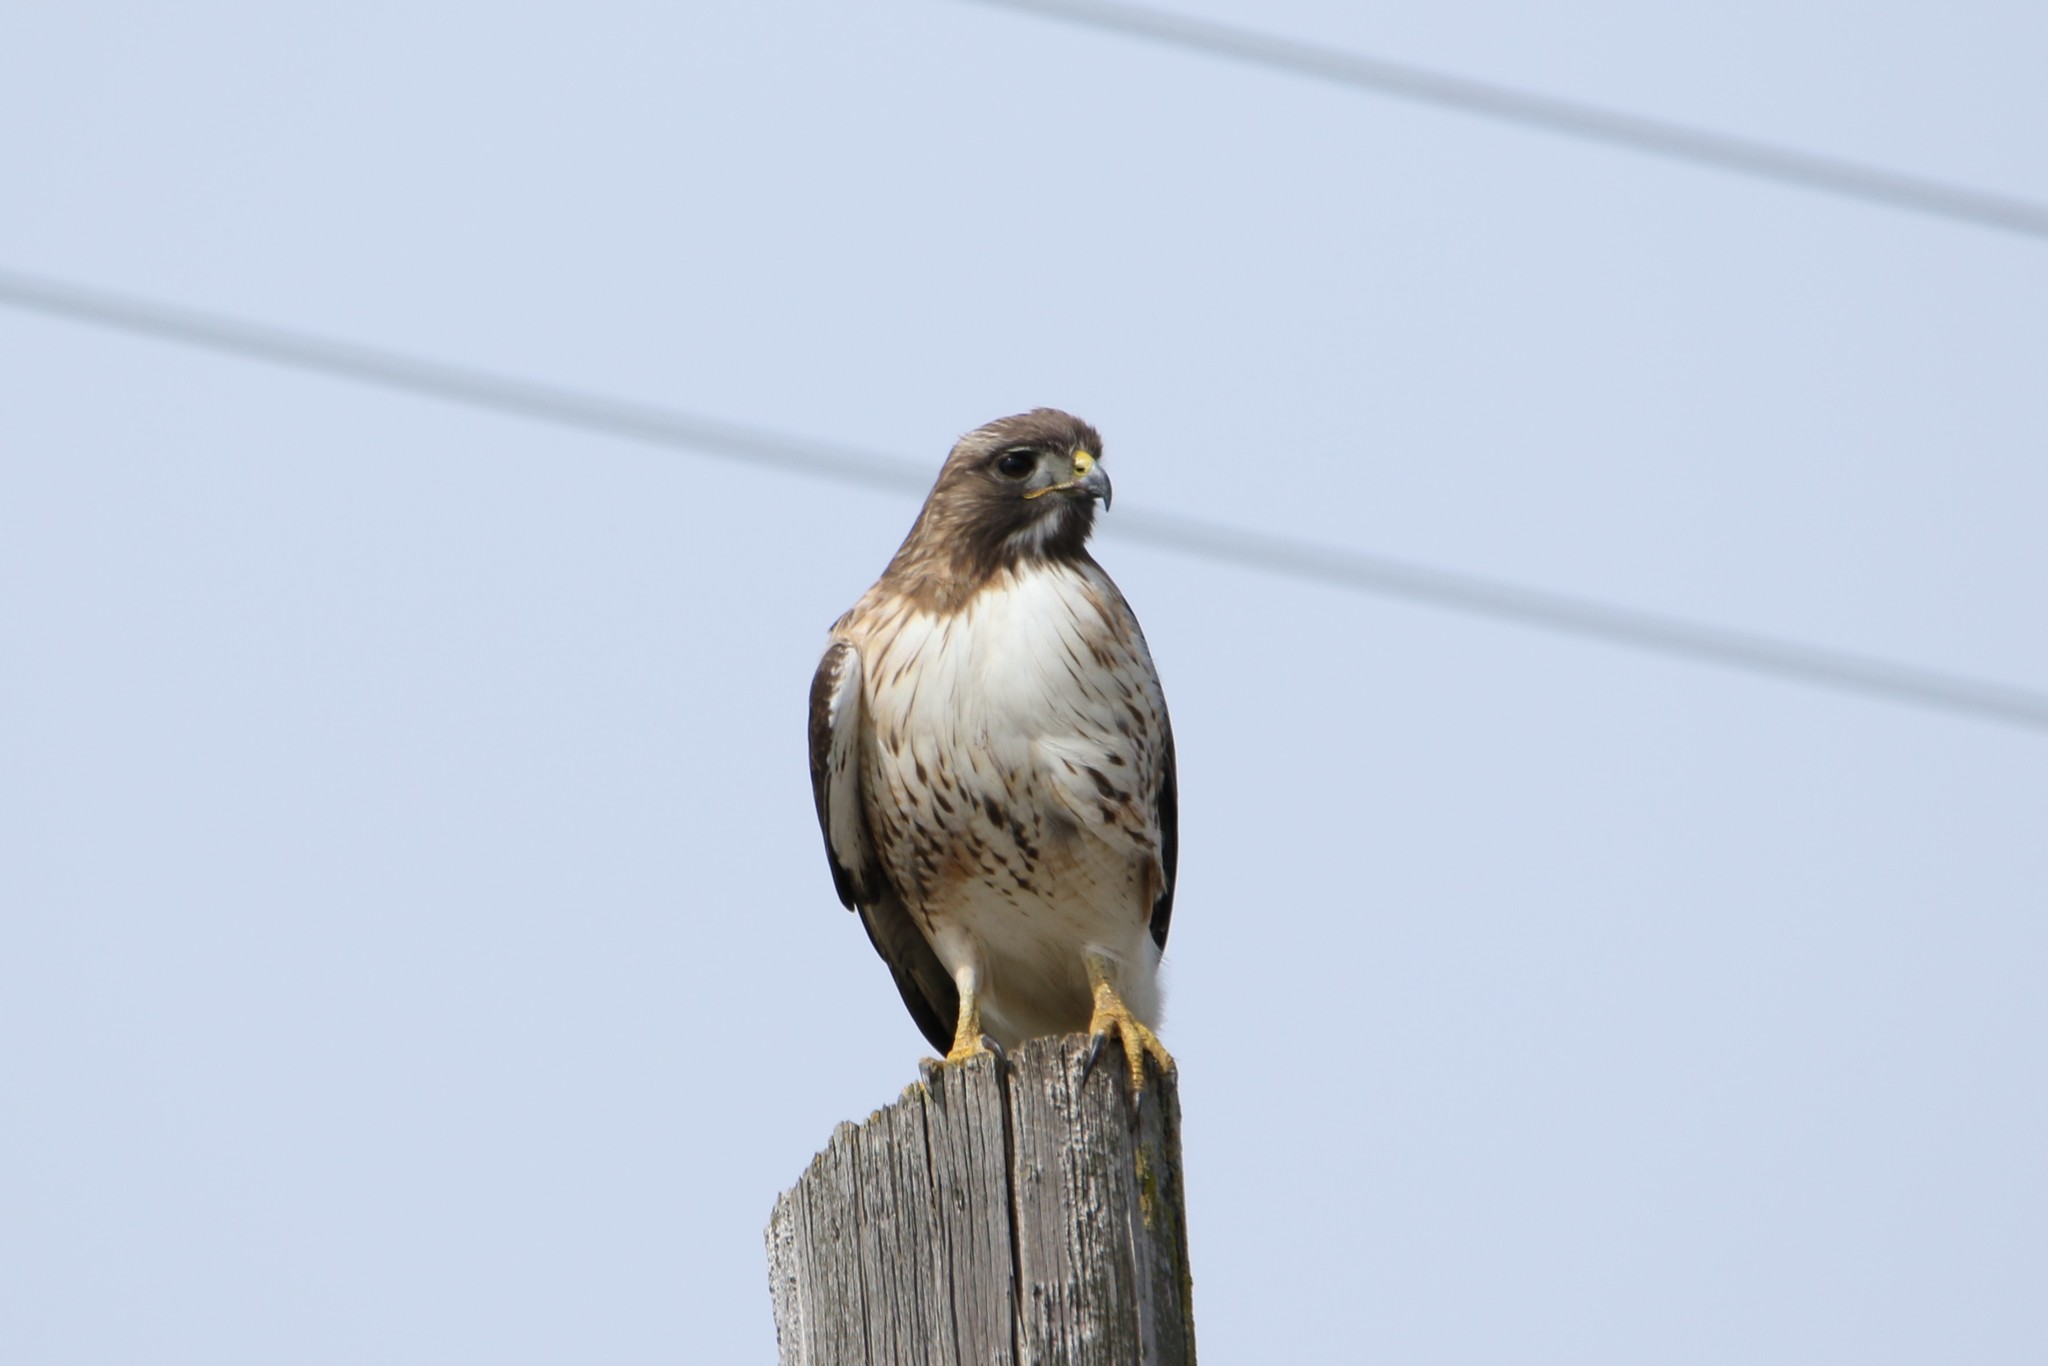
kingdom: Animalia
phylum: Chordata
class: Aves
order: Accipitriformes
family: Accipitridae
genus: Buteo
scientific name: Buteo jamaicensis
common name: Red-tailed hawk
